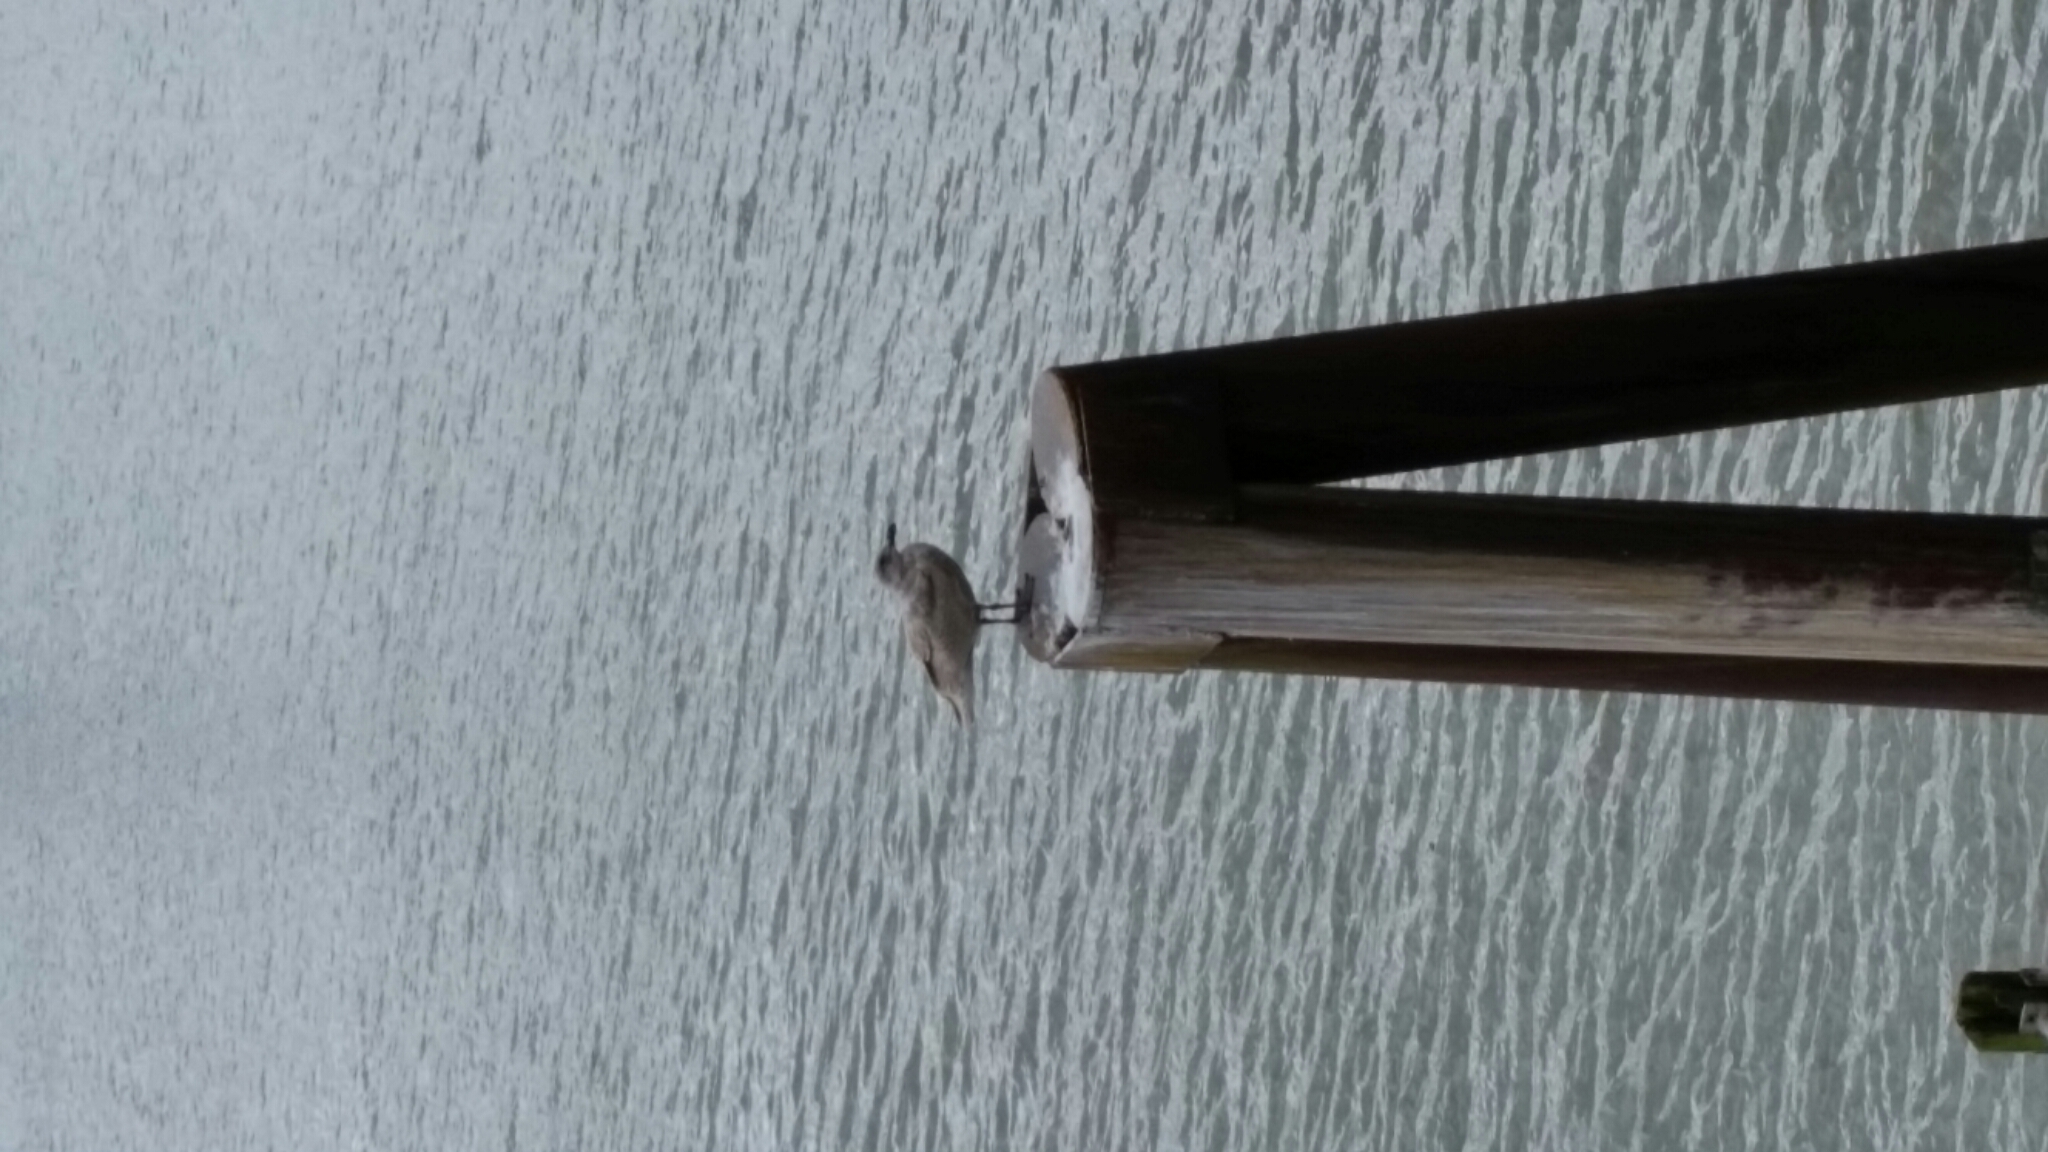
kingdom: Animalia
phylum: Chordata
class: Aves
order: Charadriiformes
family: Laridae
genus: Larus
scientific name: Larus glaucescens
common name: Glaucous-winged gull
